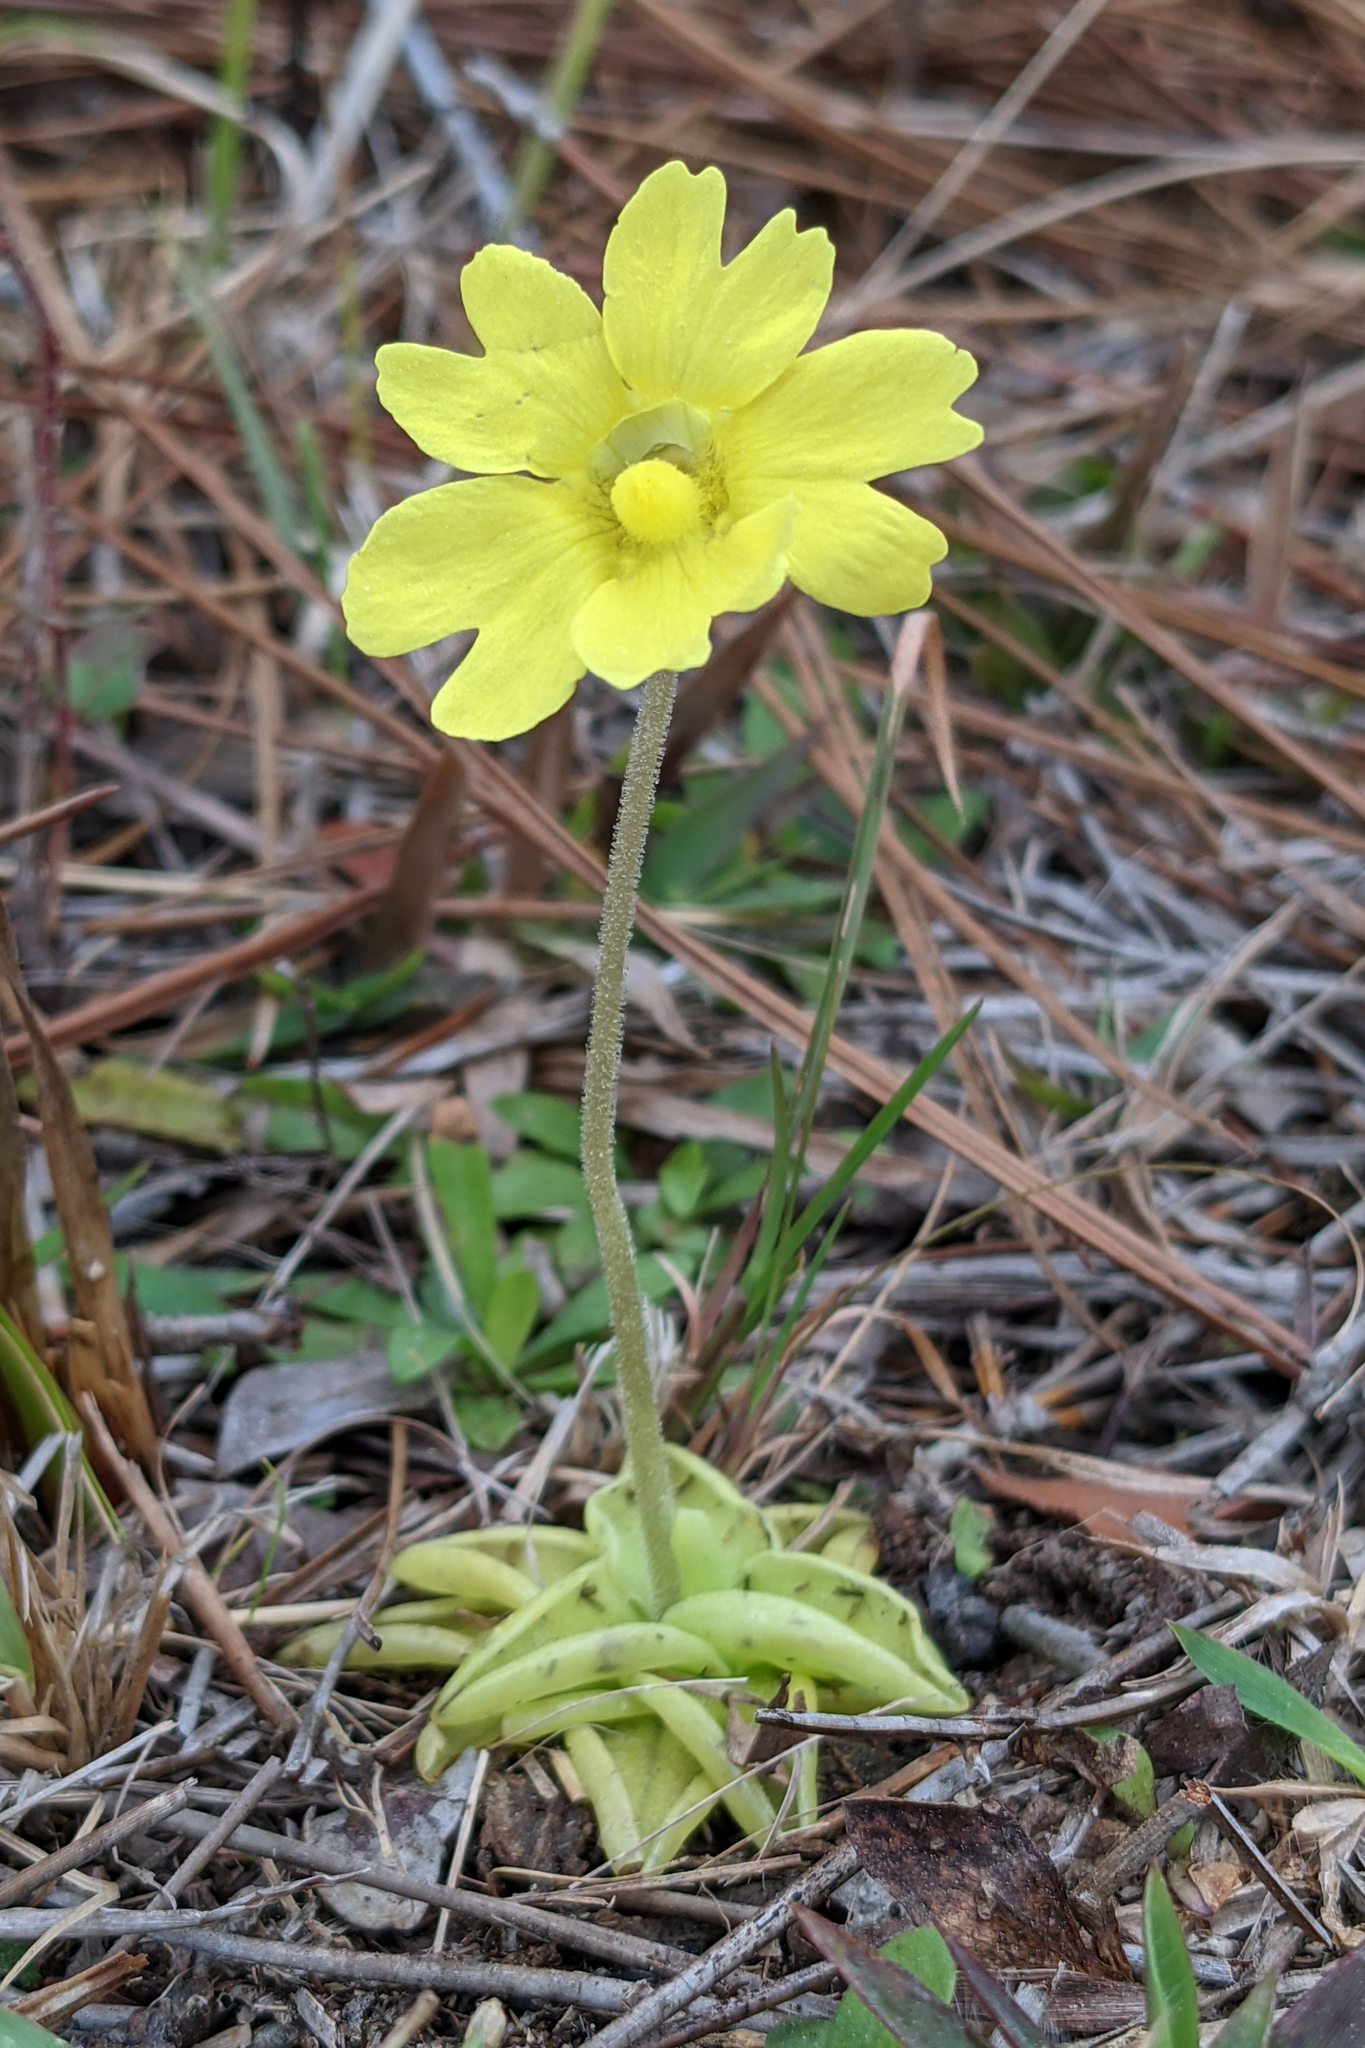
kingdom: Plantae
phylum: Tracheophyta
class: Magnoliopsida
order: Lamiales
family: Lentibulariaceae
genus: Pinguicula
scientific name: Pinguicula lutea
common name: Yellow butterwort
